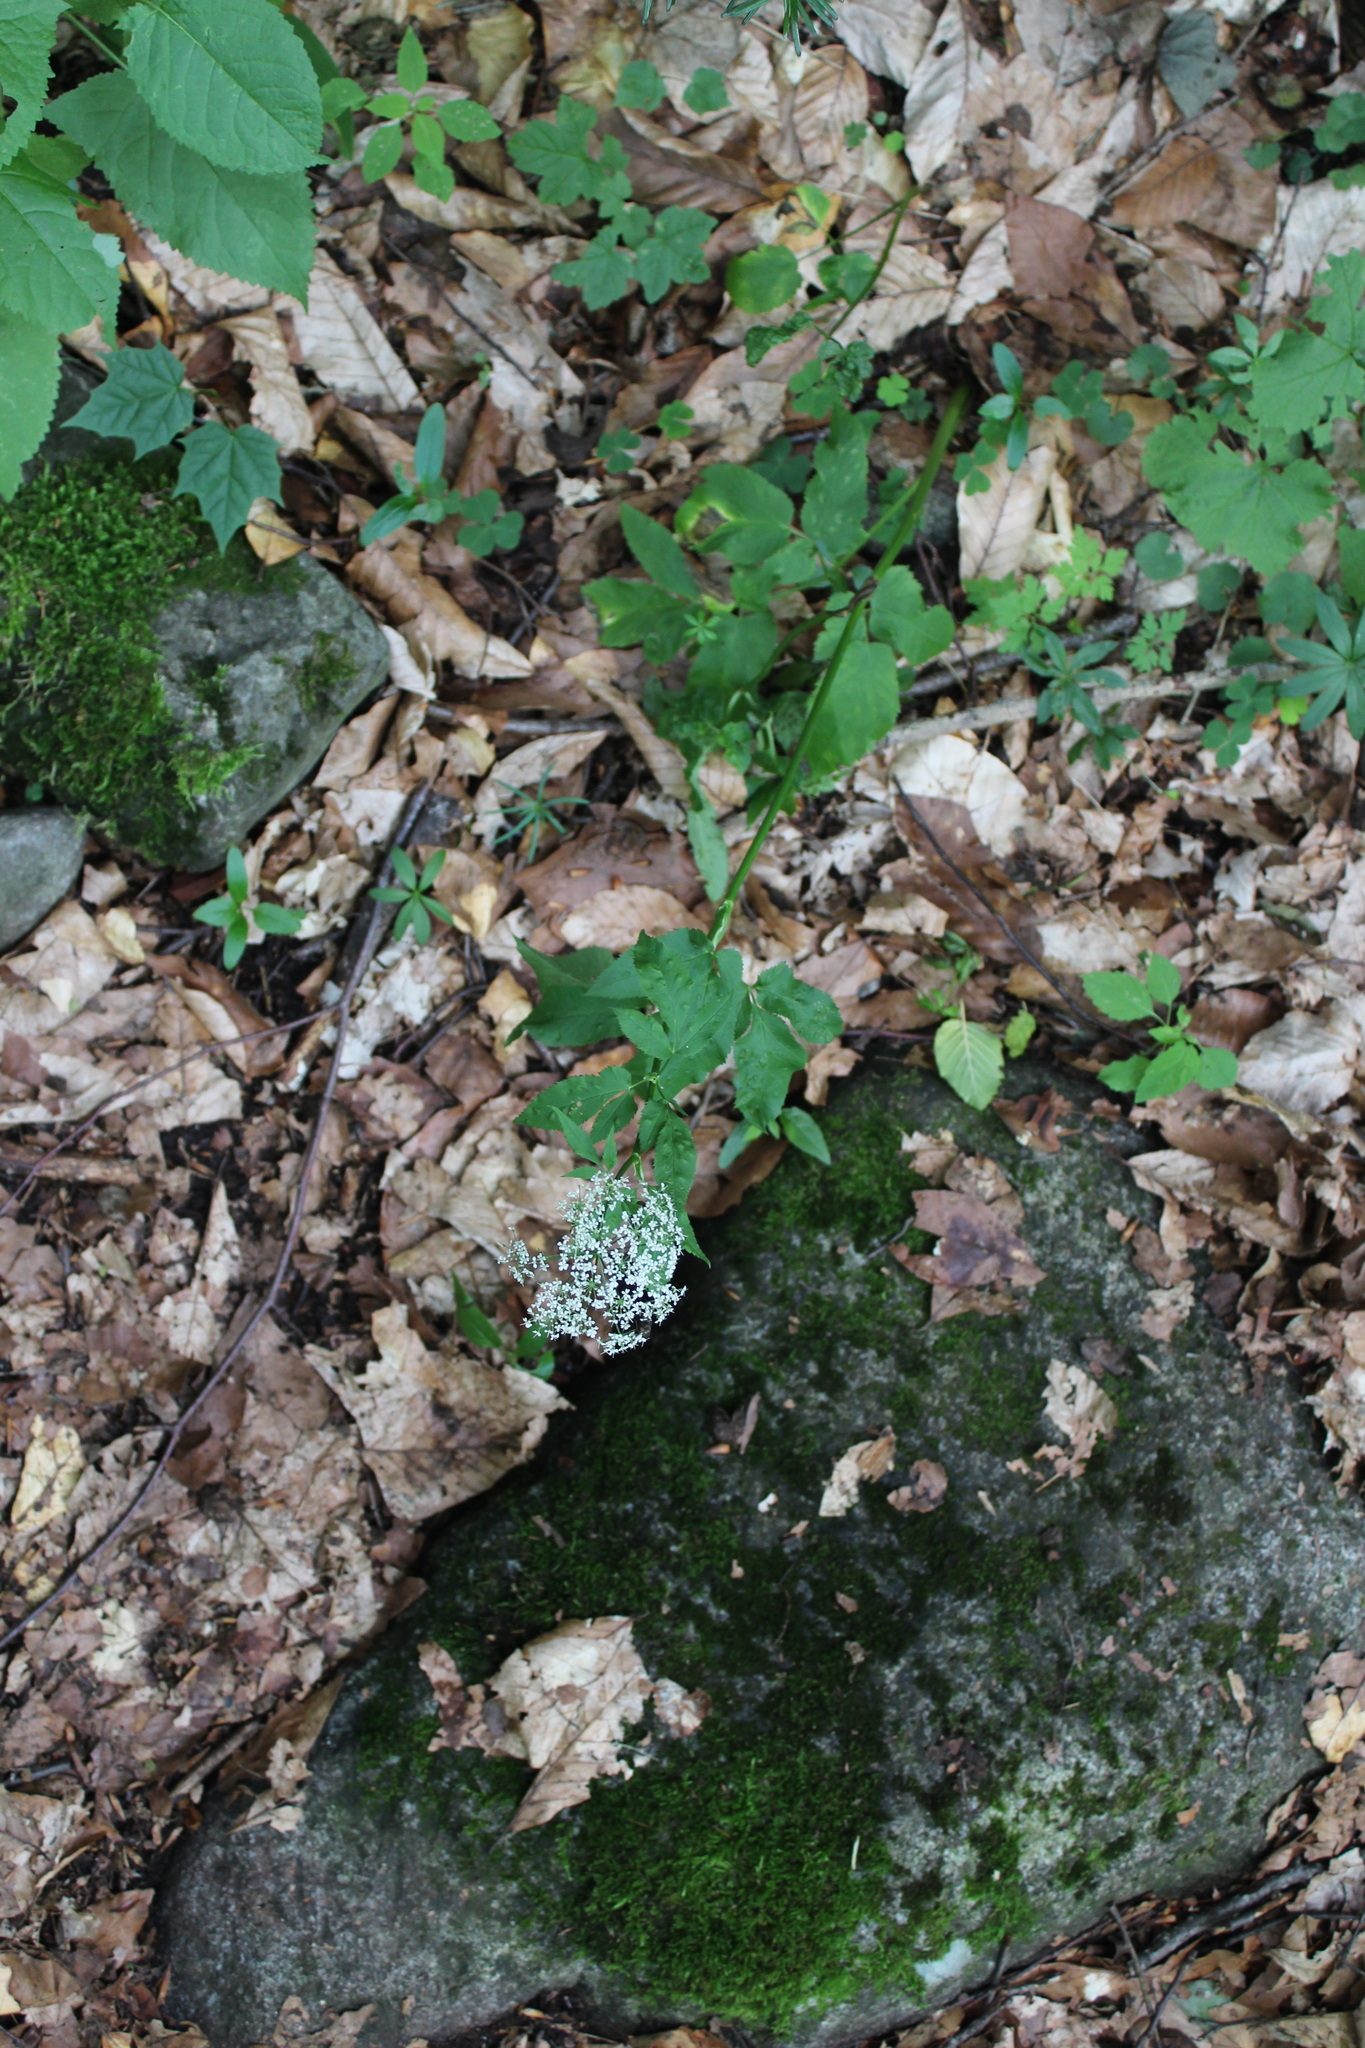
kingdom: Plantae
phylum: Tracheophyta
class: Magnoliopsida
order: Apiales
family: Apiaceae
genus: Aegopodium
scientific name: Aegopodium podagraria
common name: Ground-elder
